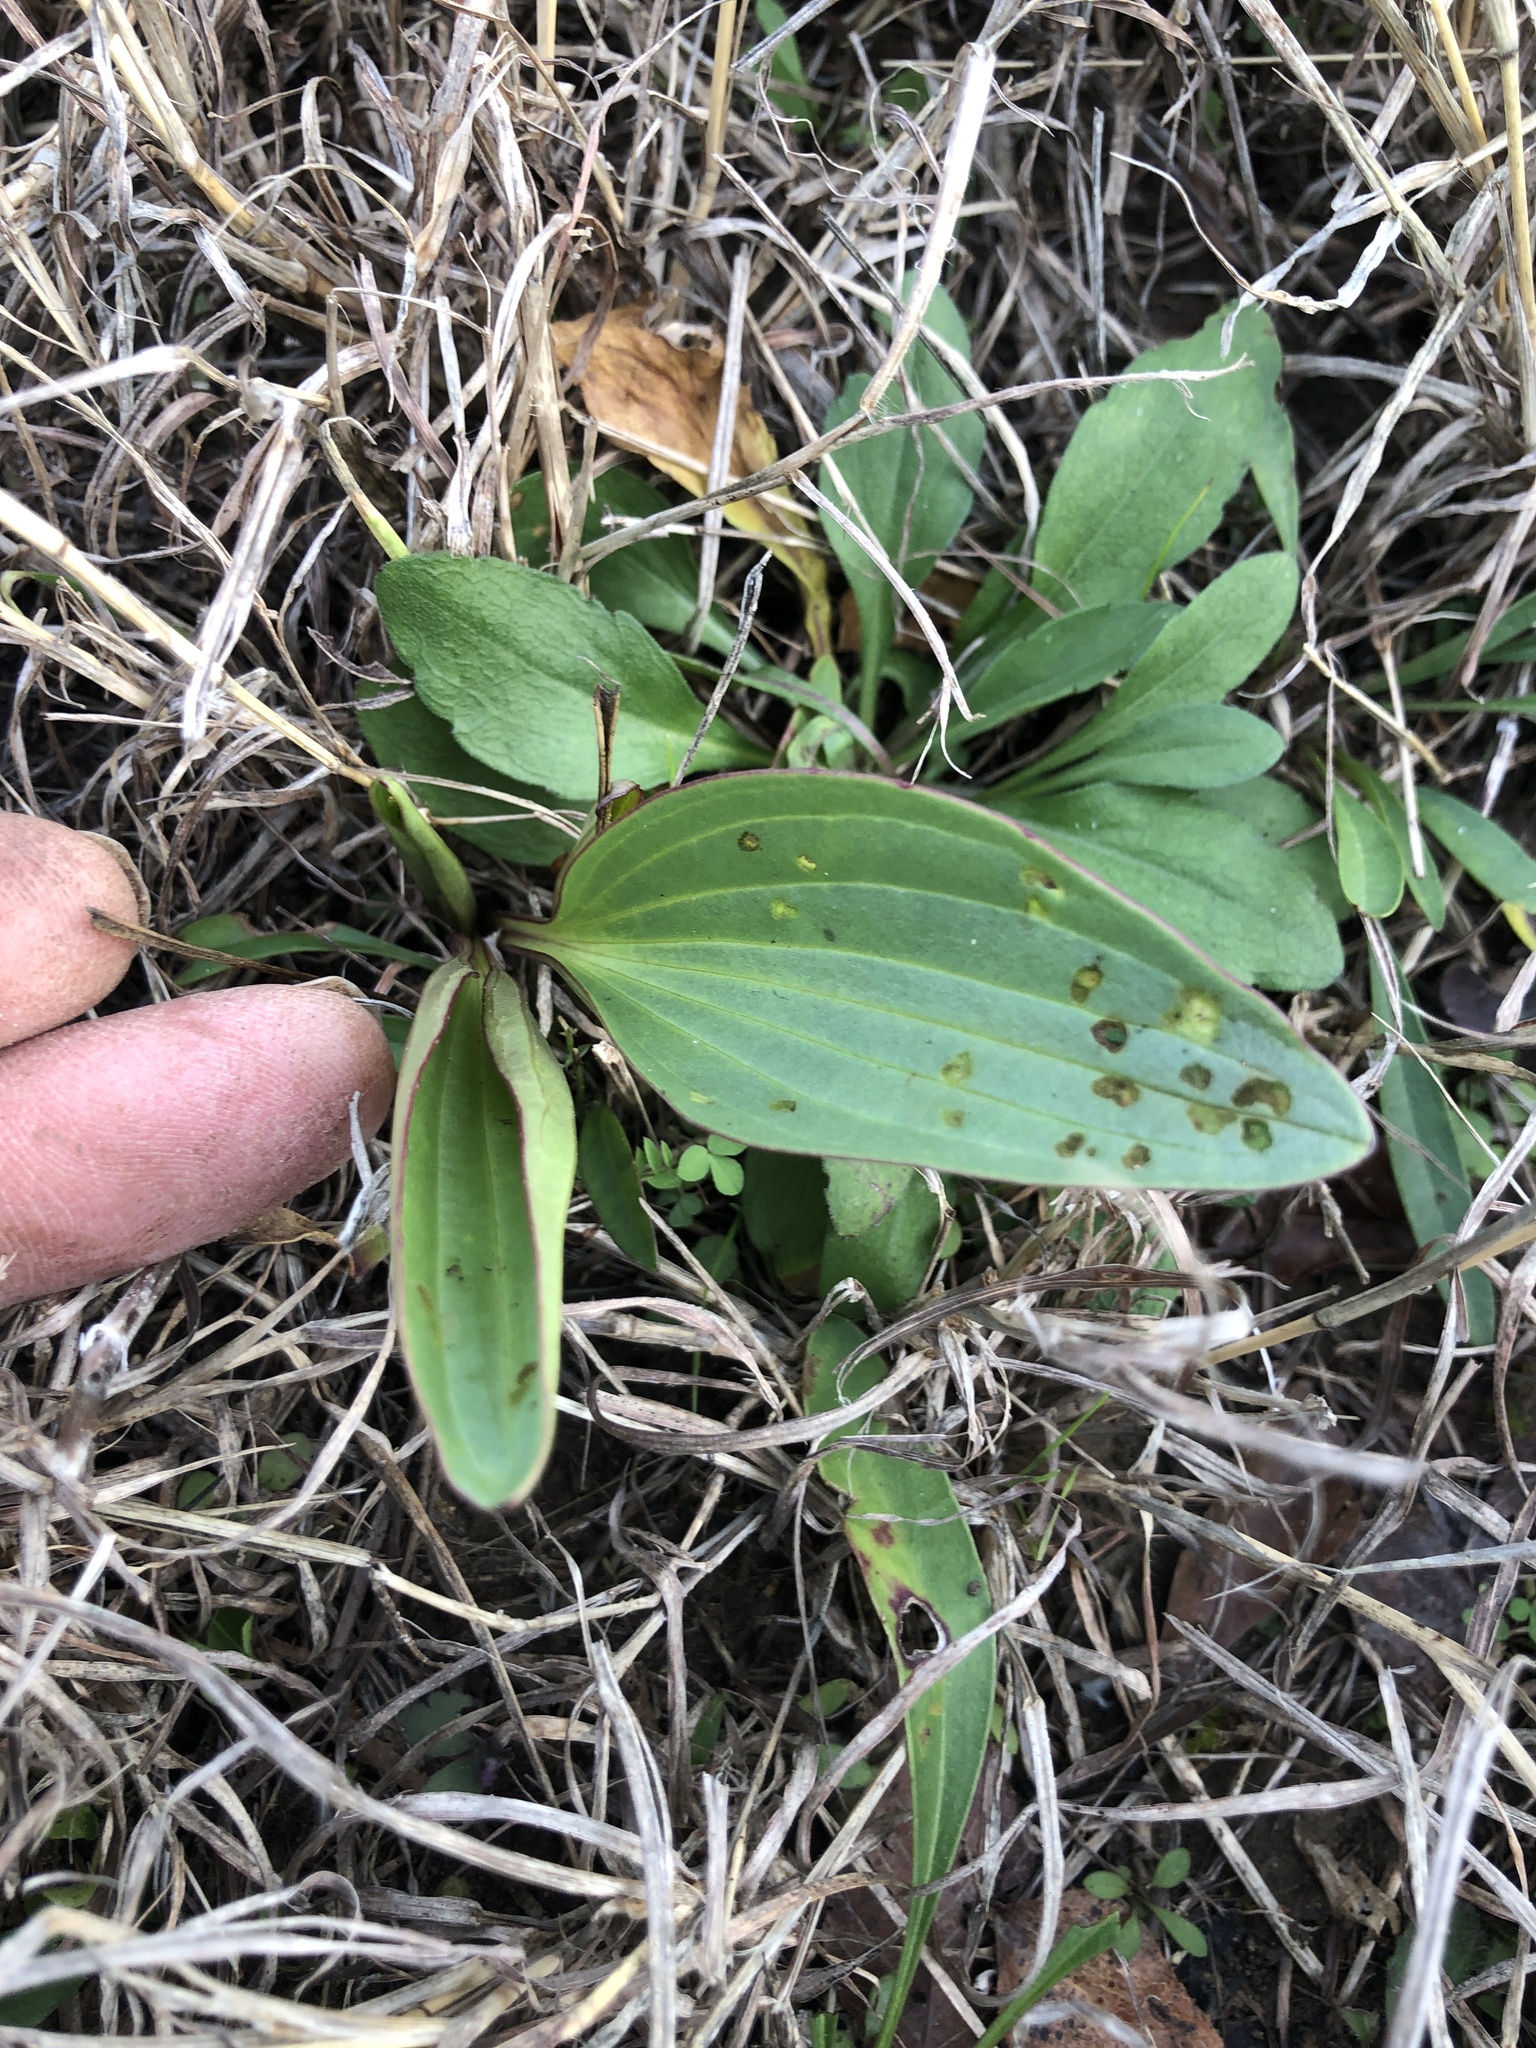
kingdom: Plantae
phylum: Tracheophyta
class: Magnoliopsida
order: Asterales
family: Asteraceae
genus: Arnoglossum
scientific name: Arnoglossum plantagineum
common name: Groove-stemmed indian-plantain
